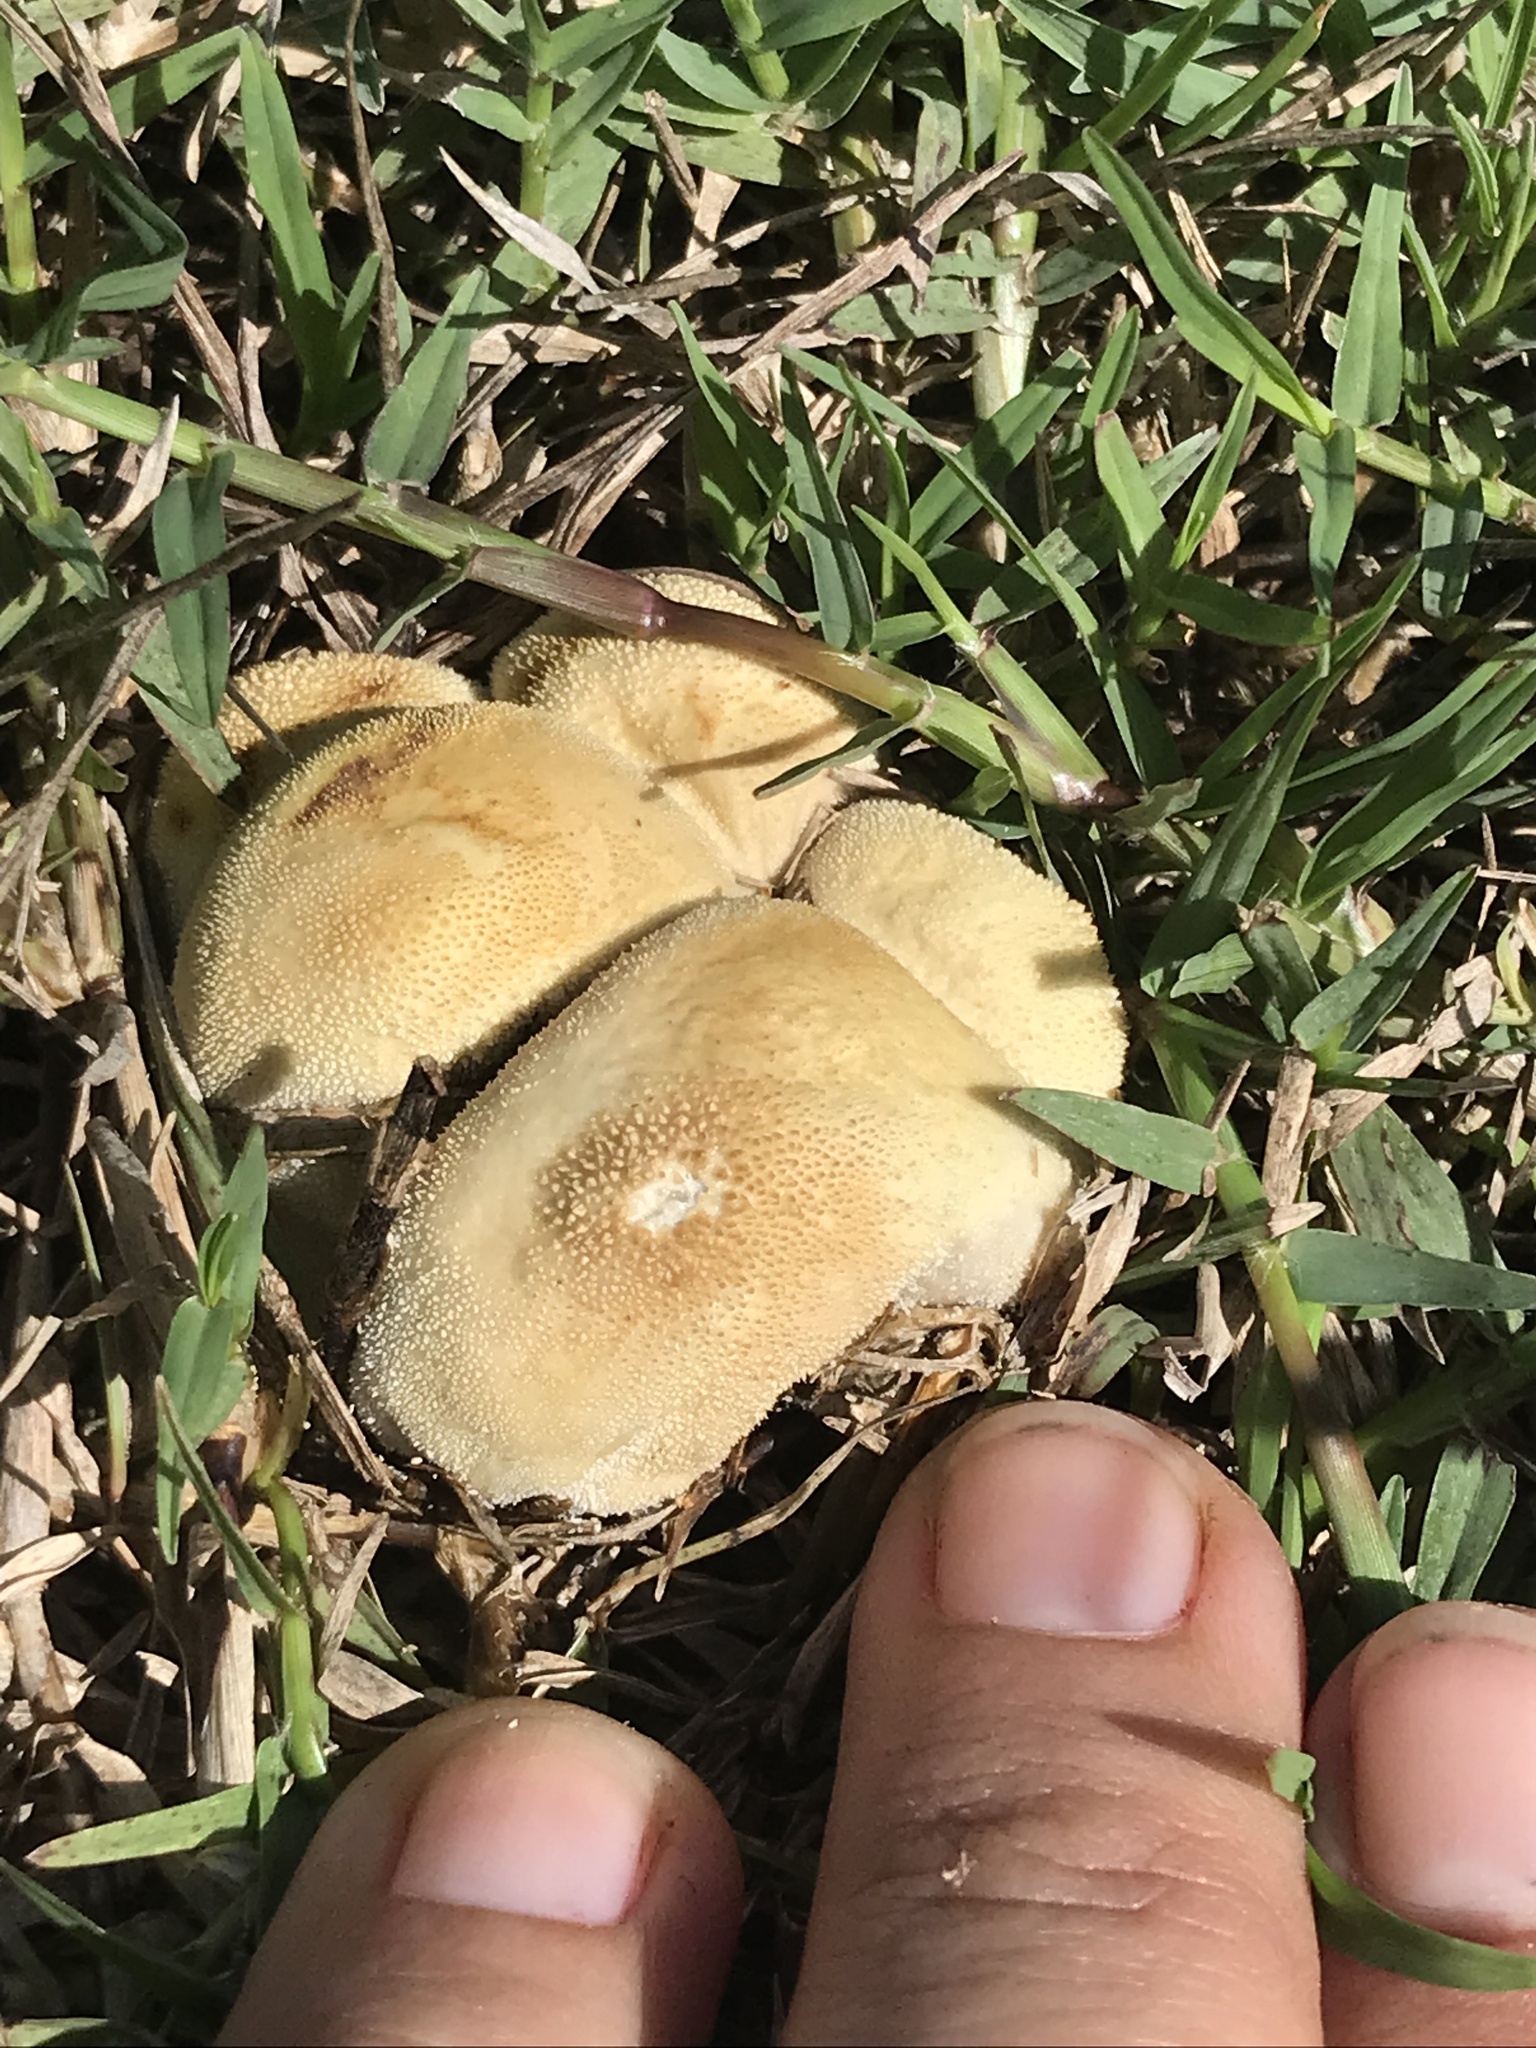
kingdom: Fungi
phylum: Basidiomycota
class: Agaricomycetes
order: Agaricales
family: Lycoperdaceae
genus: Lycoperdon
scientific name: Lycoperdon pratense
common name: Meadow puffball
